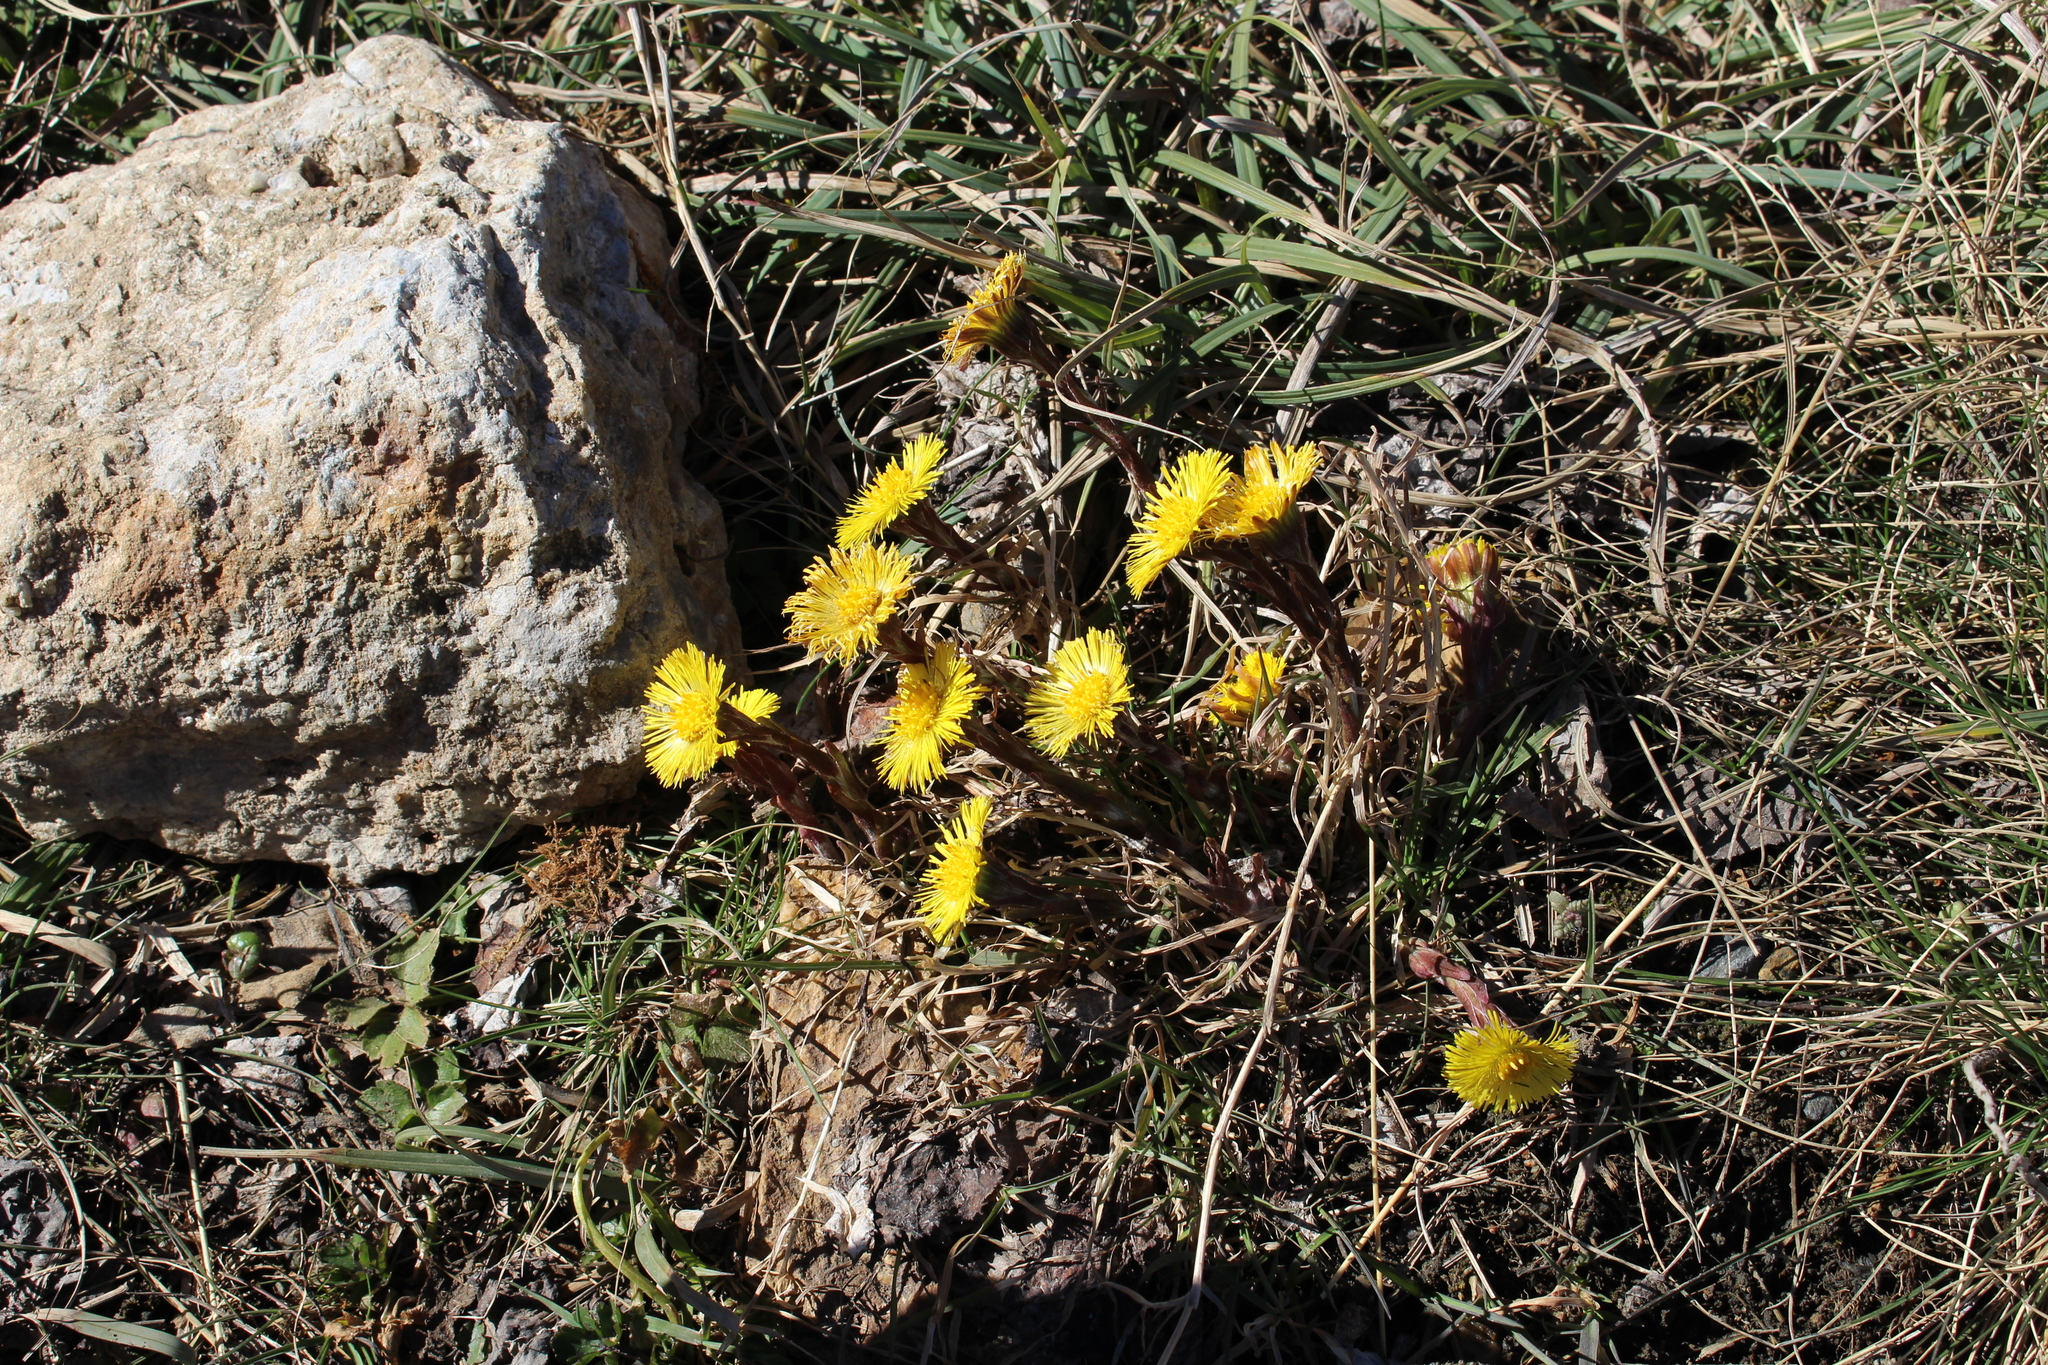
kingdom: Plantae
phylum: Tracheophyta
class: Magnoliopsida
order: Asterales
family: Asteraceae
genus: Tussilago
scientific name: Tussilago farfara
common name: Coltsfoot
